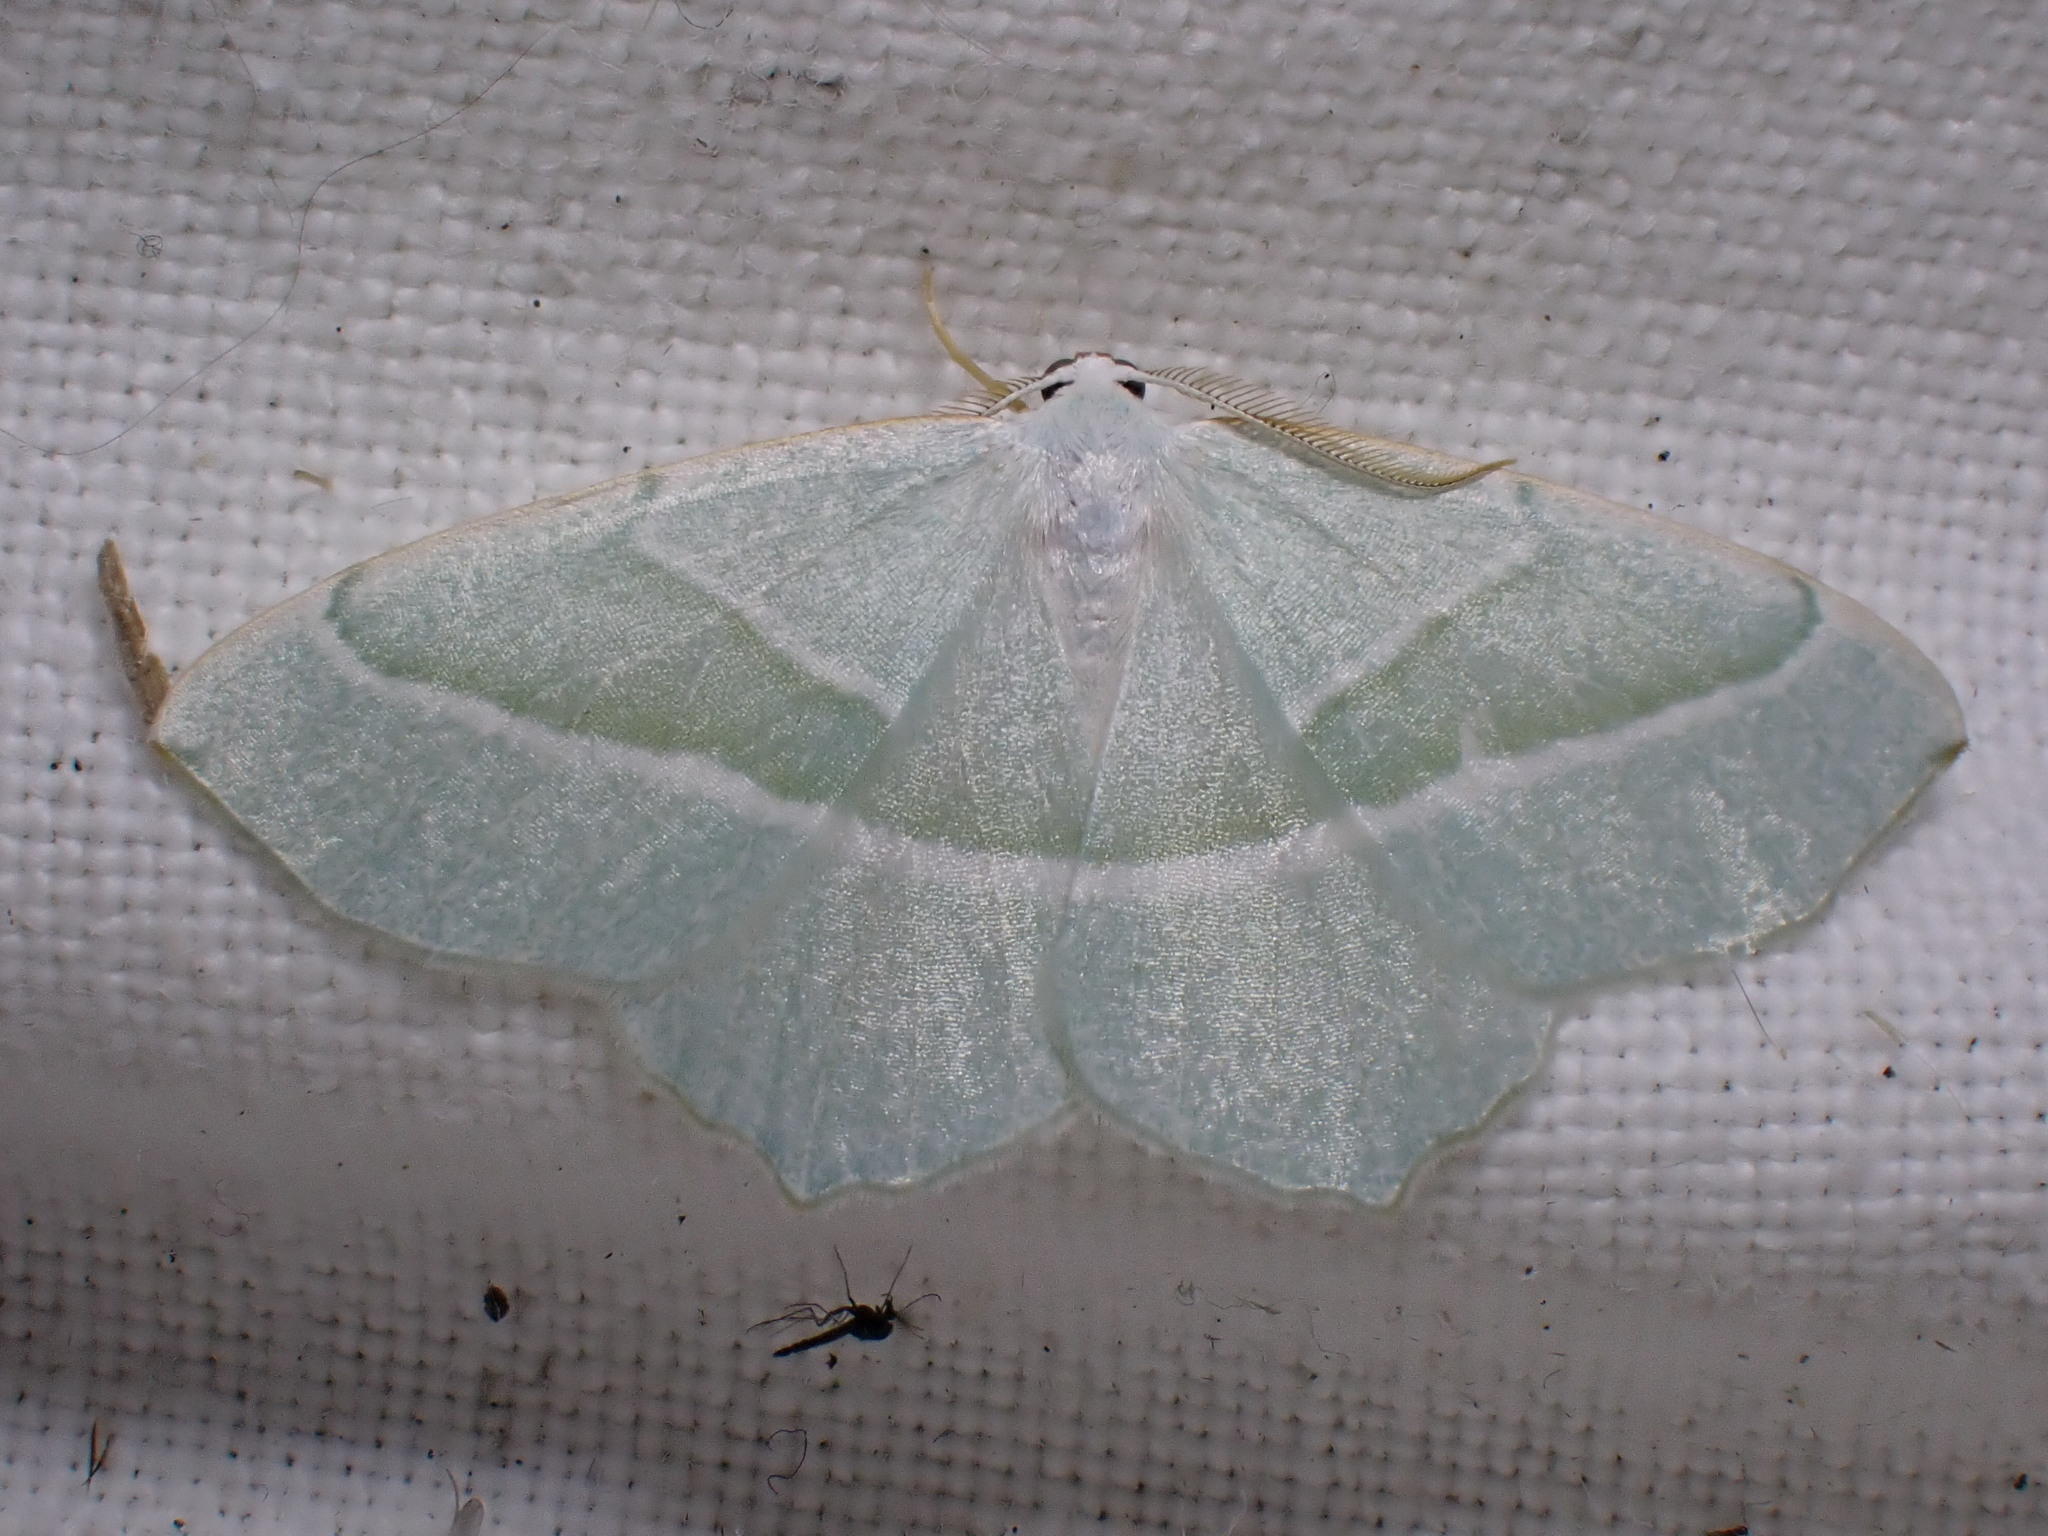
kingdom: Animalia
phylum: Arthropoda
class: Insecta
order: Lepidoptera
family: Geometridae
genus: Campaea
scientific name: Campaea margaritaria
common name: Light emerald
